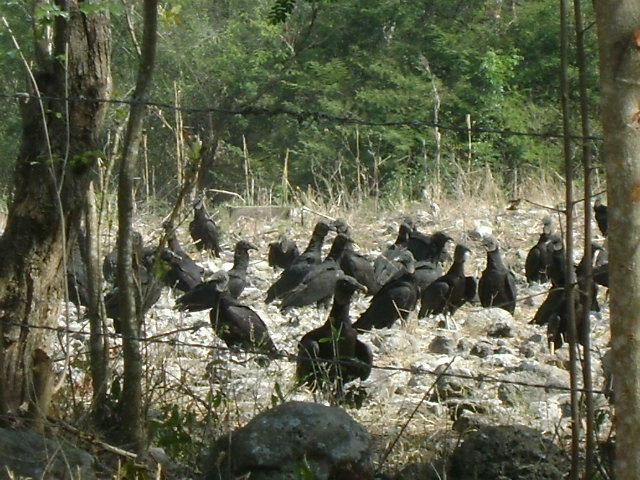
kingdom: Animalia
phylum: Chordata
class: Aves
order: Accipitriformes
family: Cathartidae
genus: Coragyps
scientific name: Coragyps atratus
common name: Black vulture
